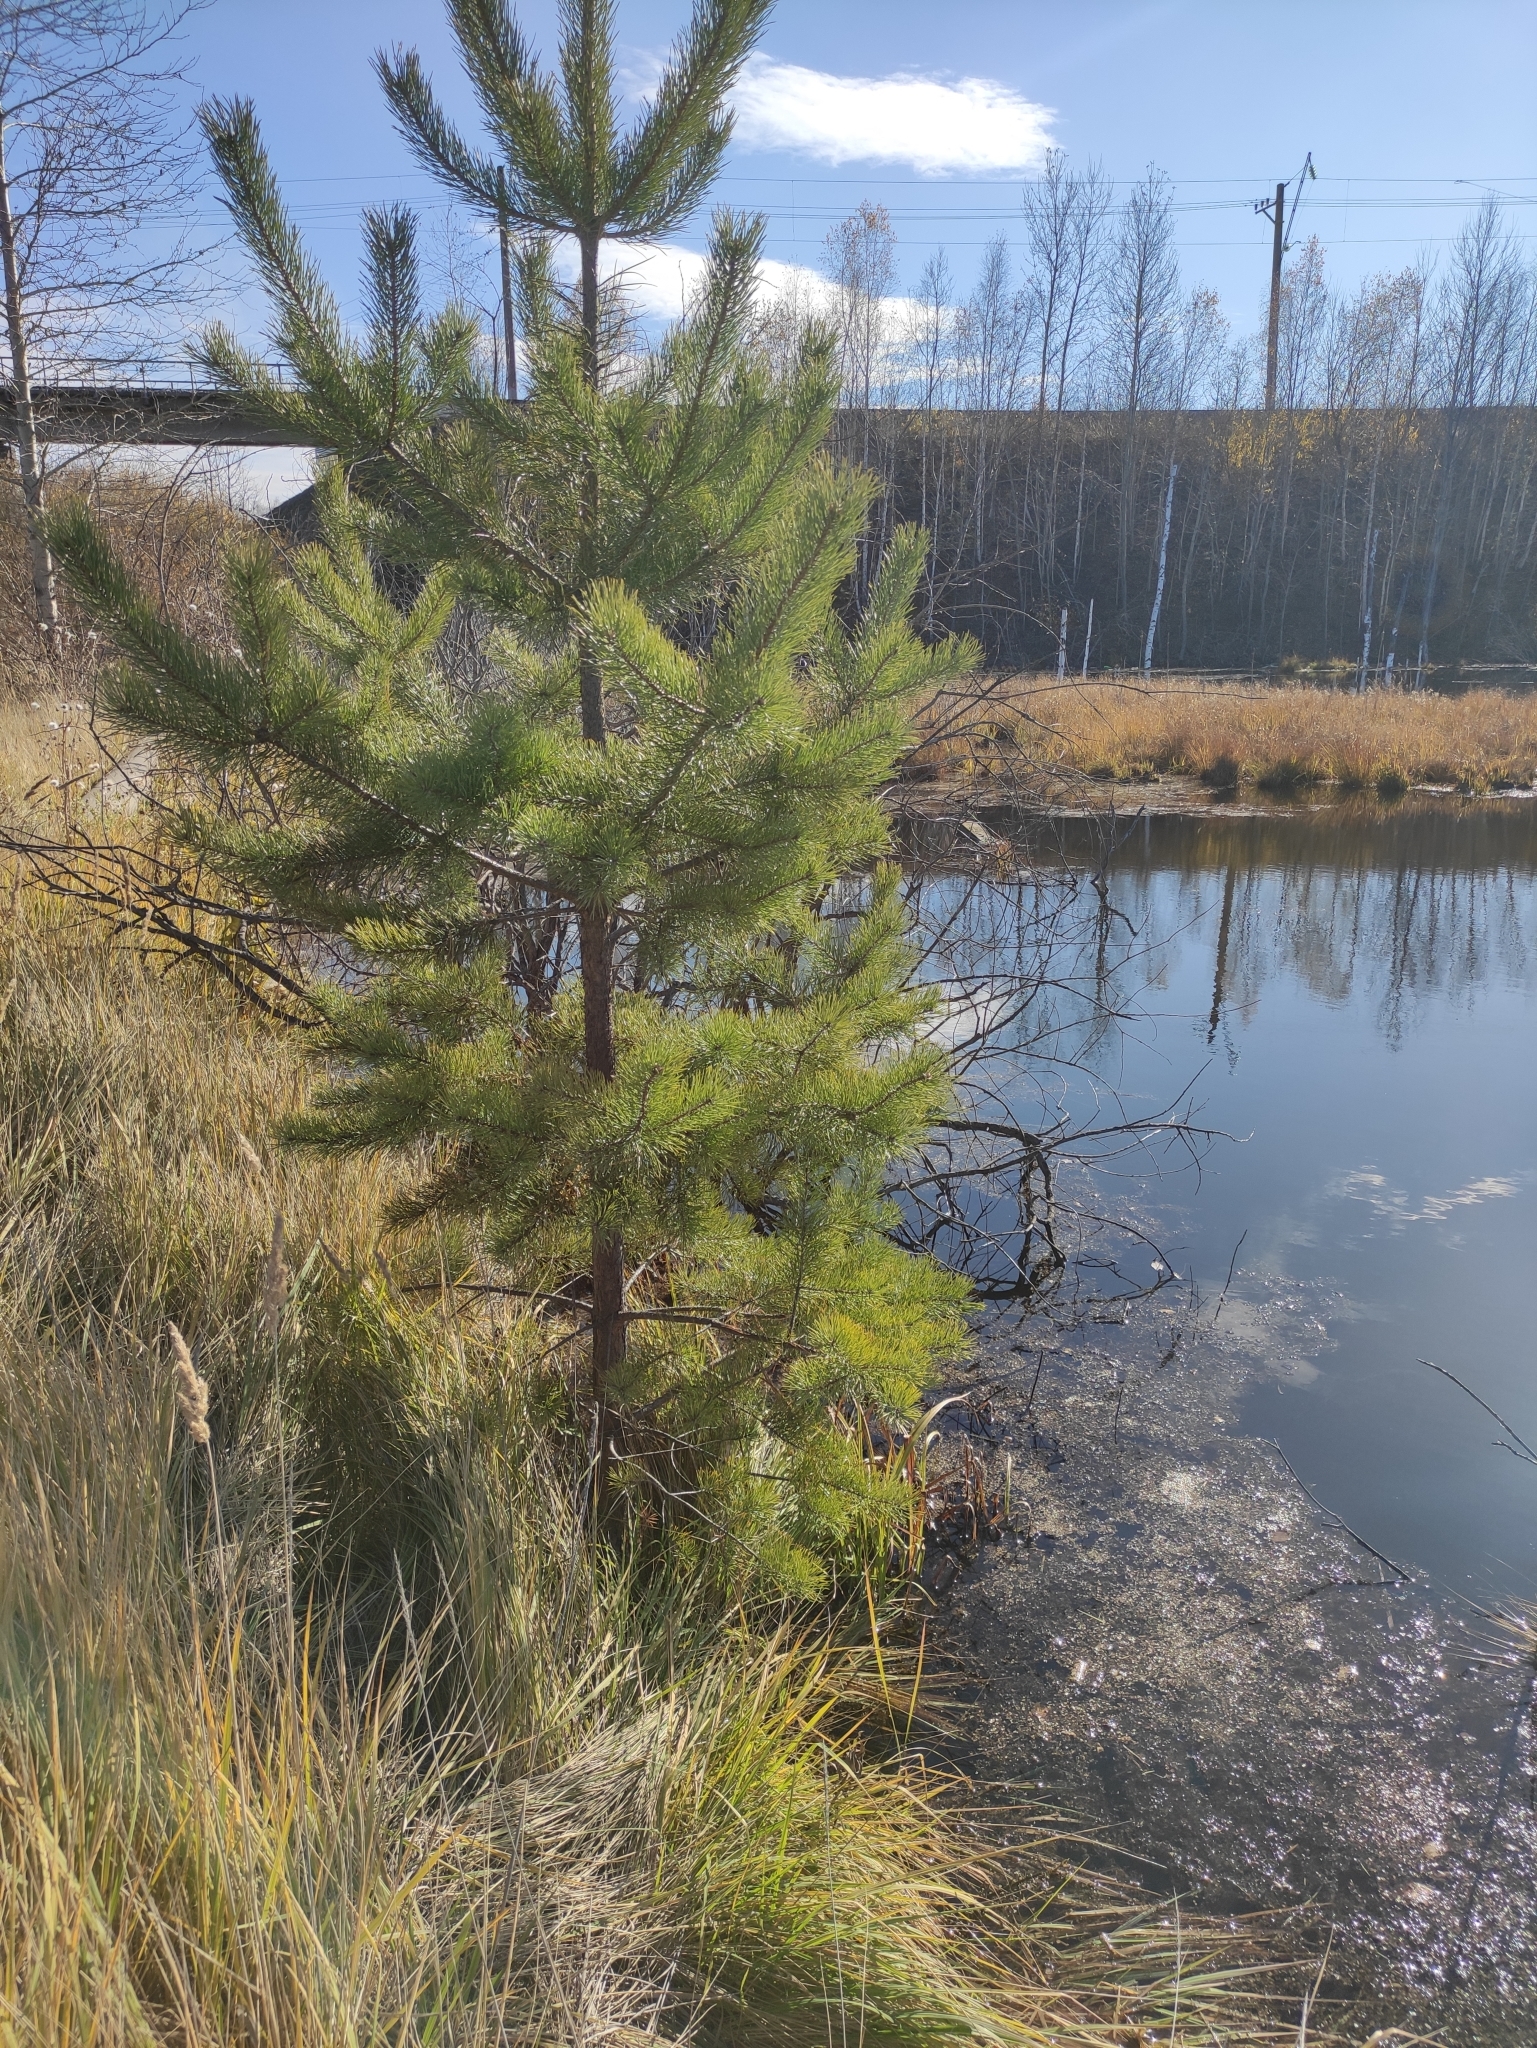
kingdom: Plantae
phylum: Tracheophyta
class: Pinopsida
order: Pinales
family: Pinaceae
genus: Pinus
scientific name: Pinus sylvestris
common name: Scots pine
